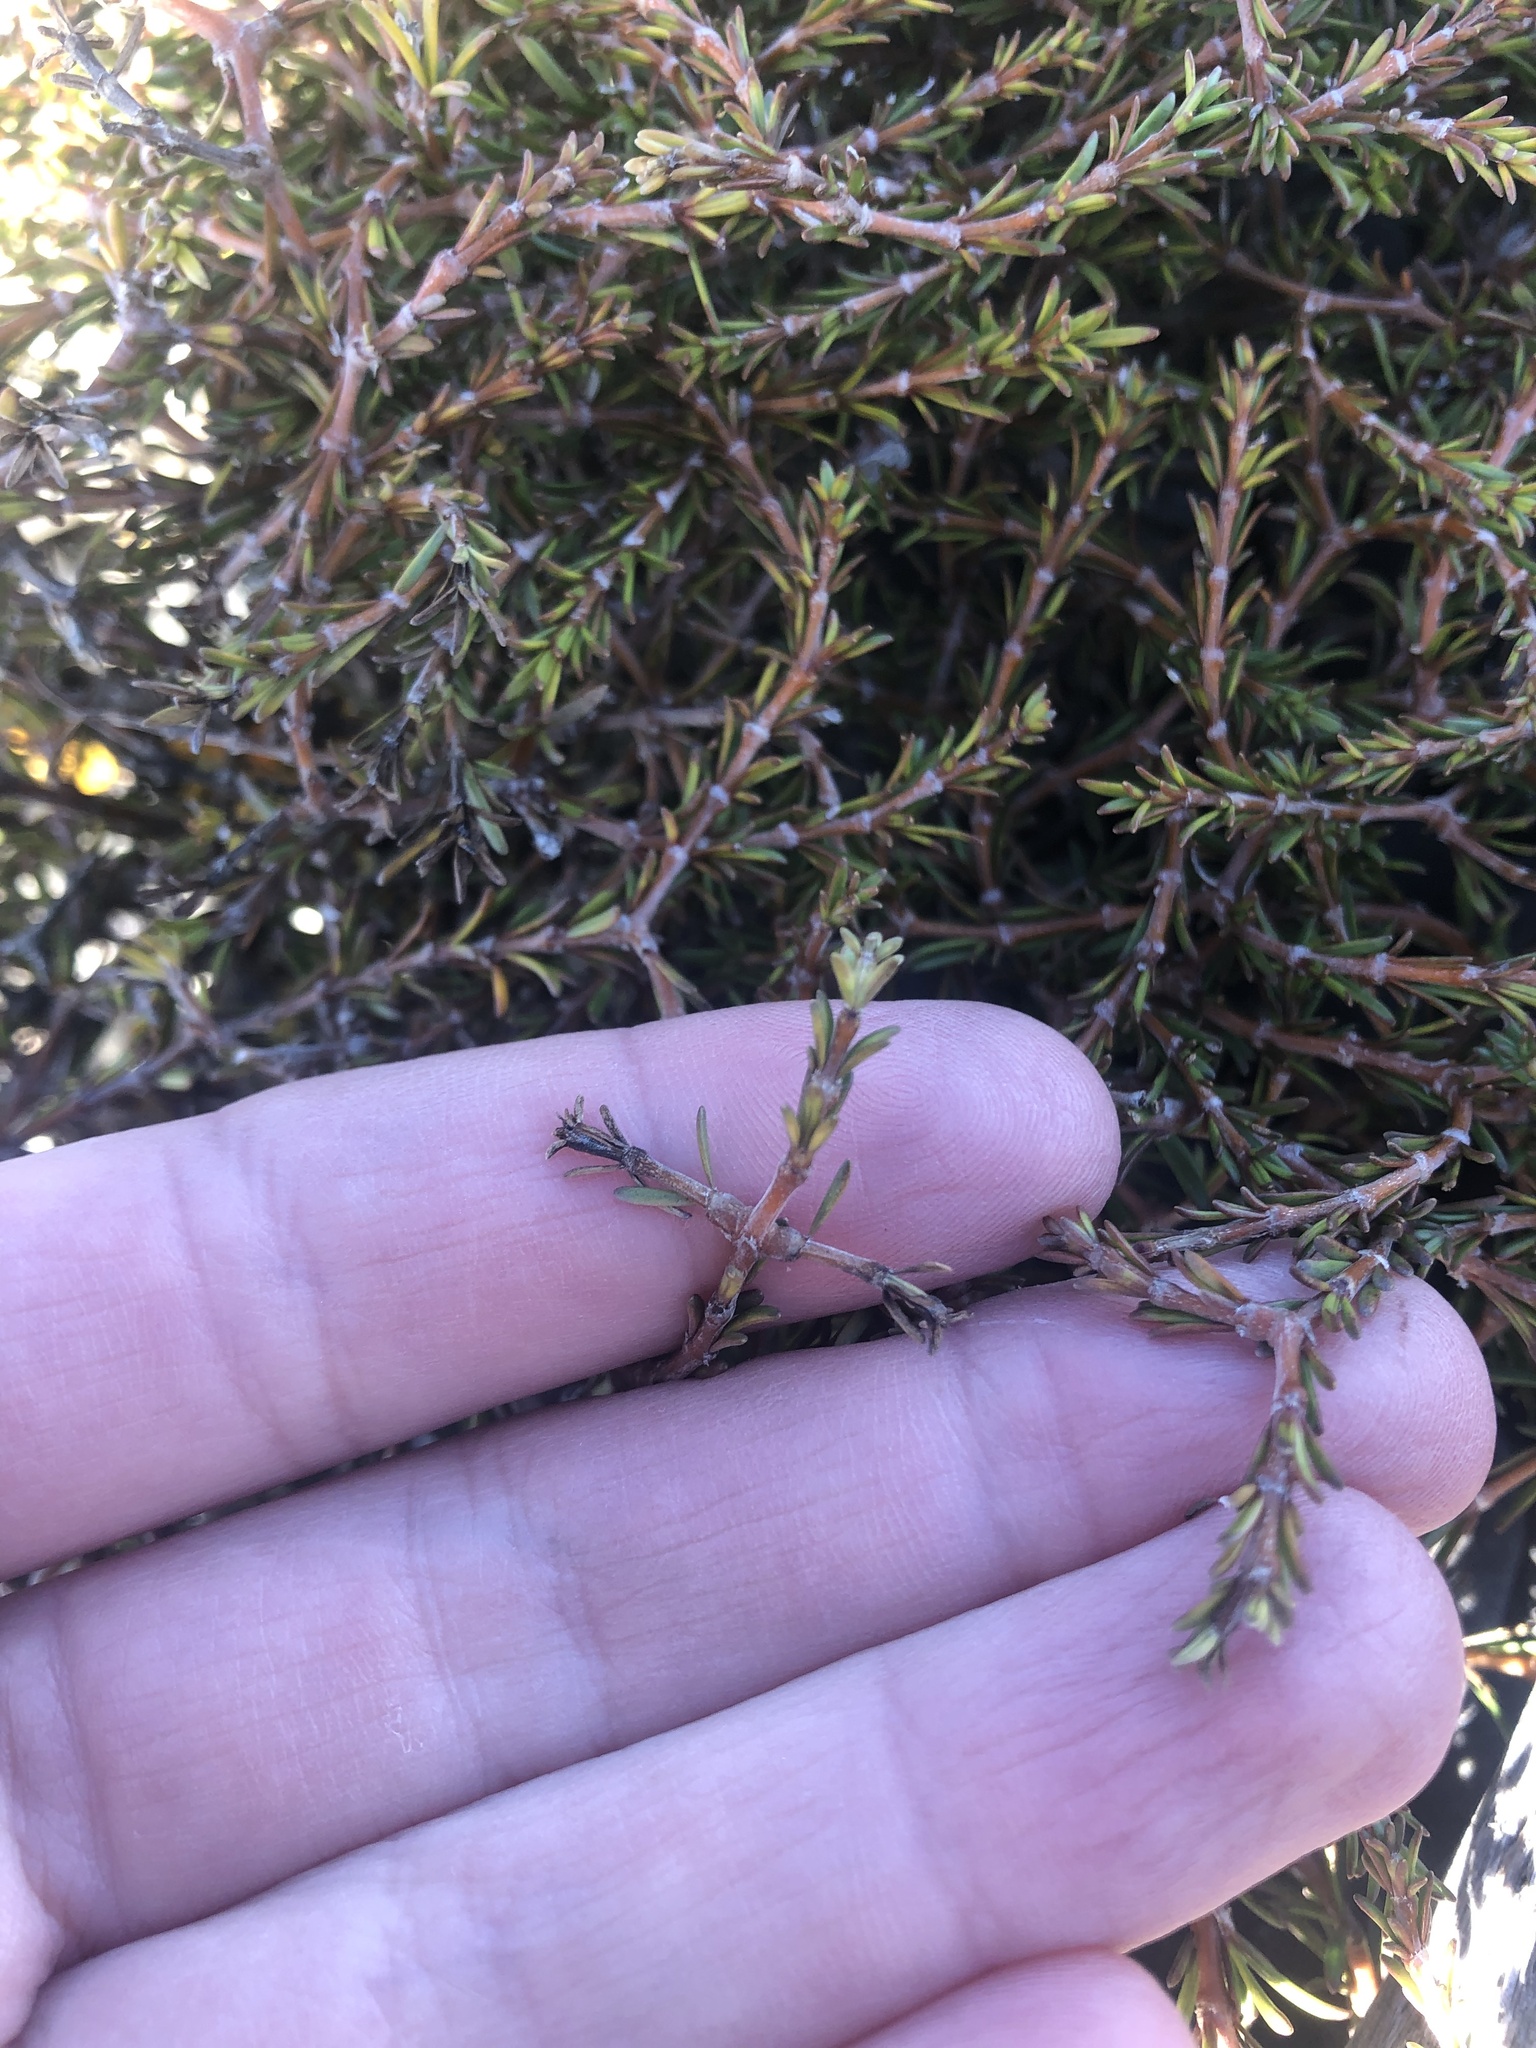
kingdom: Plantae
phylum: Tracheophyta
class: Magnoliopsida
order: Gentianales
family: Rubiaceae
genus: Coprosma
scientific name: Coprosma acerosa
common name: Sand coprosma
